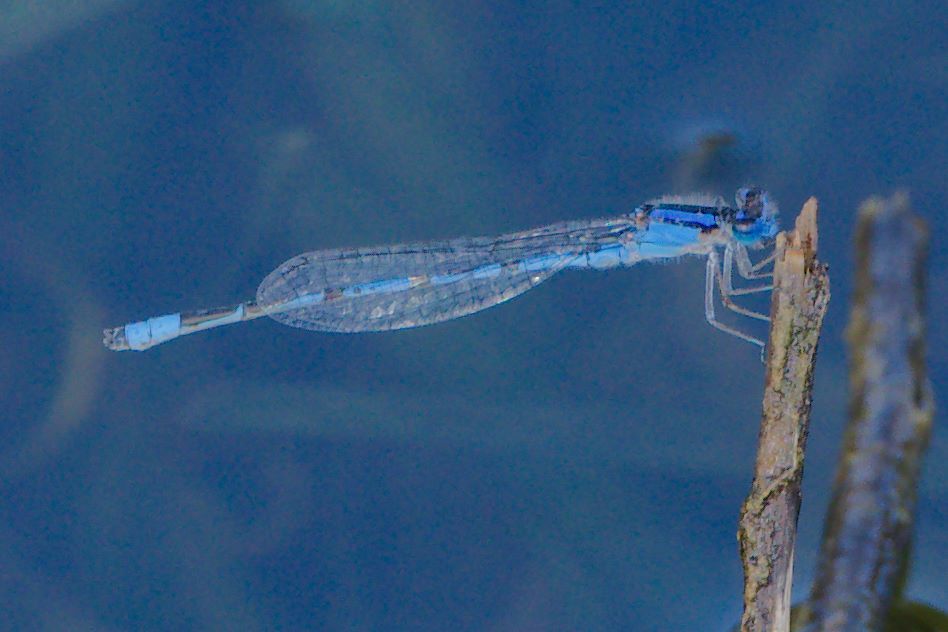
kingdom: Animalia
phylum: Arthropoda
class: Insecta
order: Odonata
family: Coenagrionidae
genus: Enallagma
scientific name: Enallagma civile
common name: Damselfly
